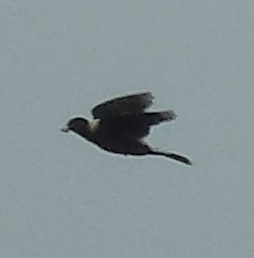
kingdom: Animalia
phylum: Chordata
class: Aves
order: Passeriformes
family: Icteridae
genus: Dolichonyx
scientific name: Dolichonyx oryzivorus
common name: Bobolink
